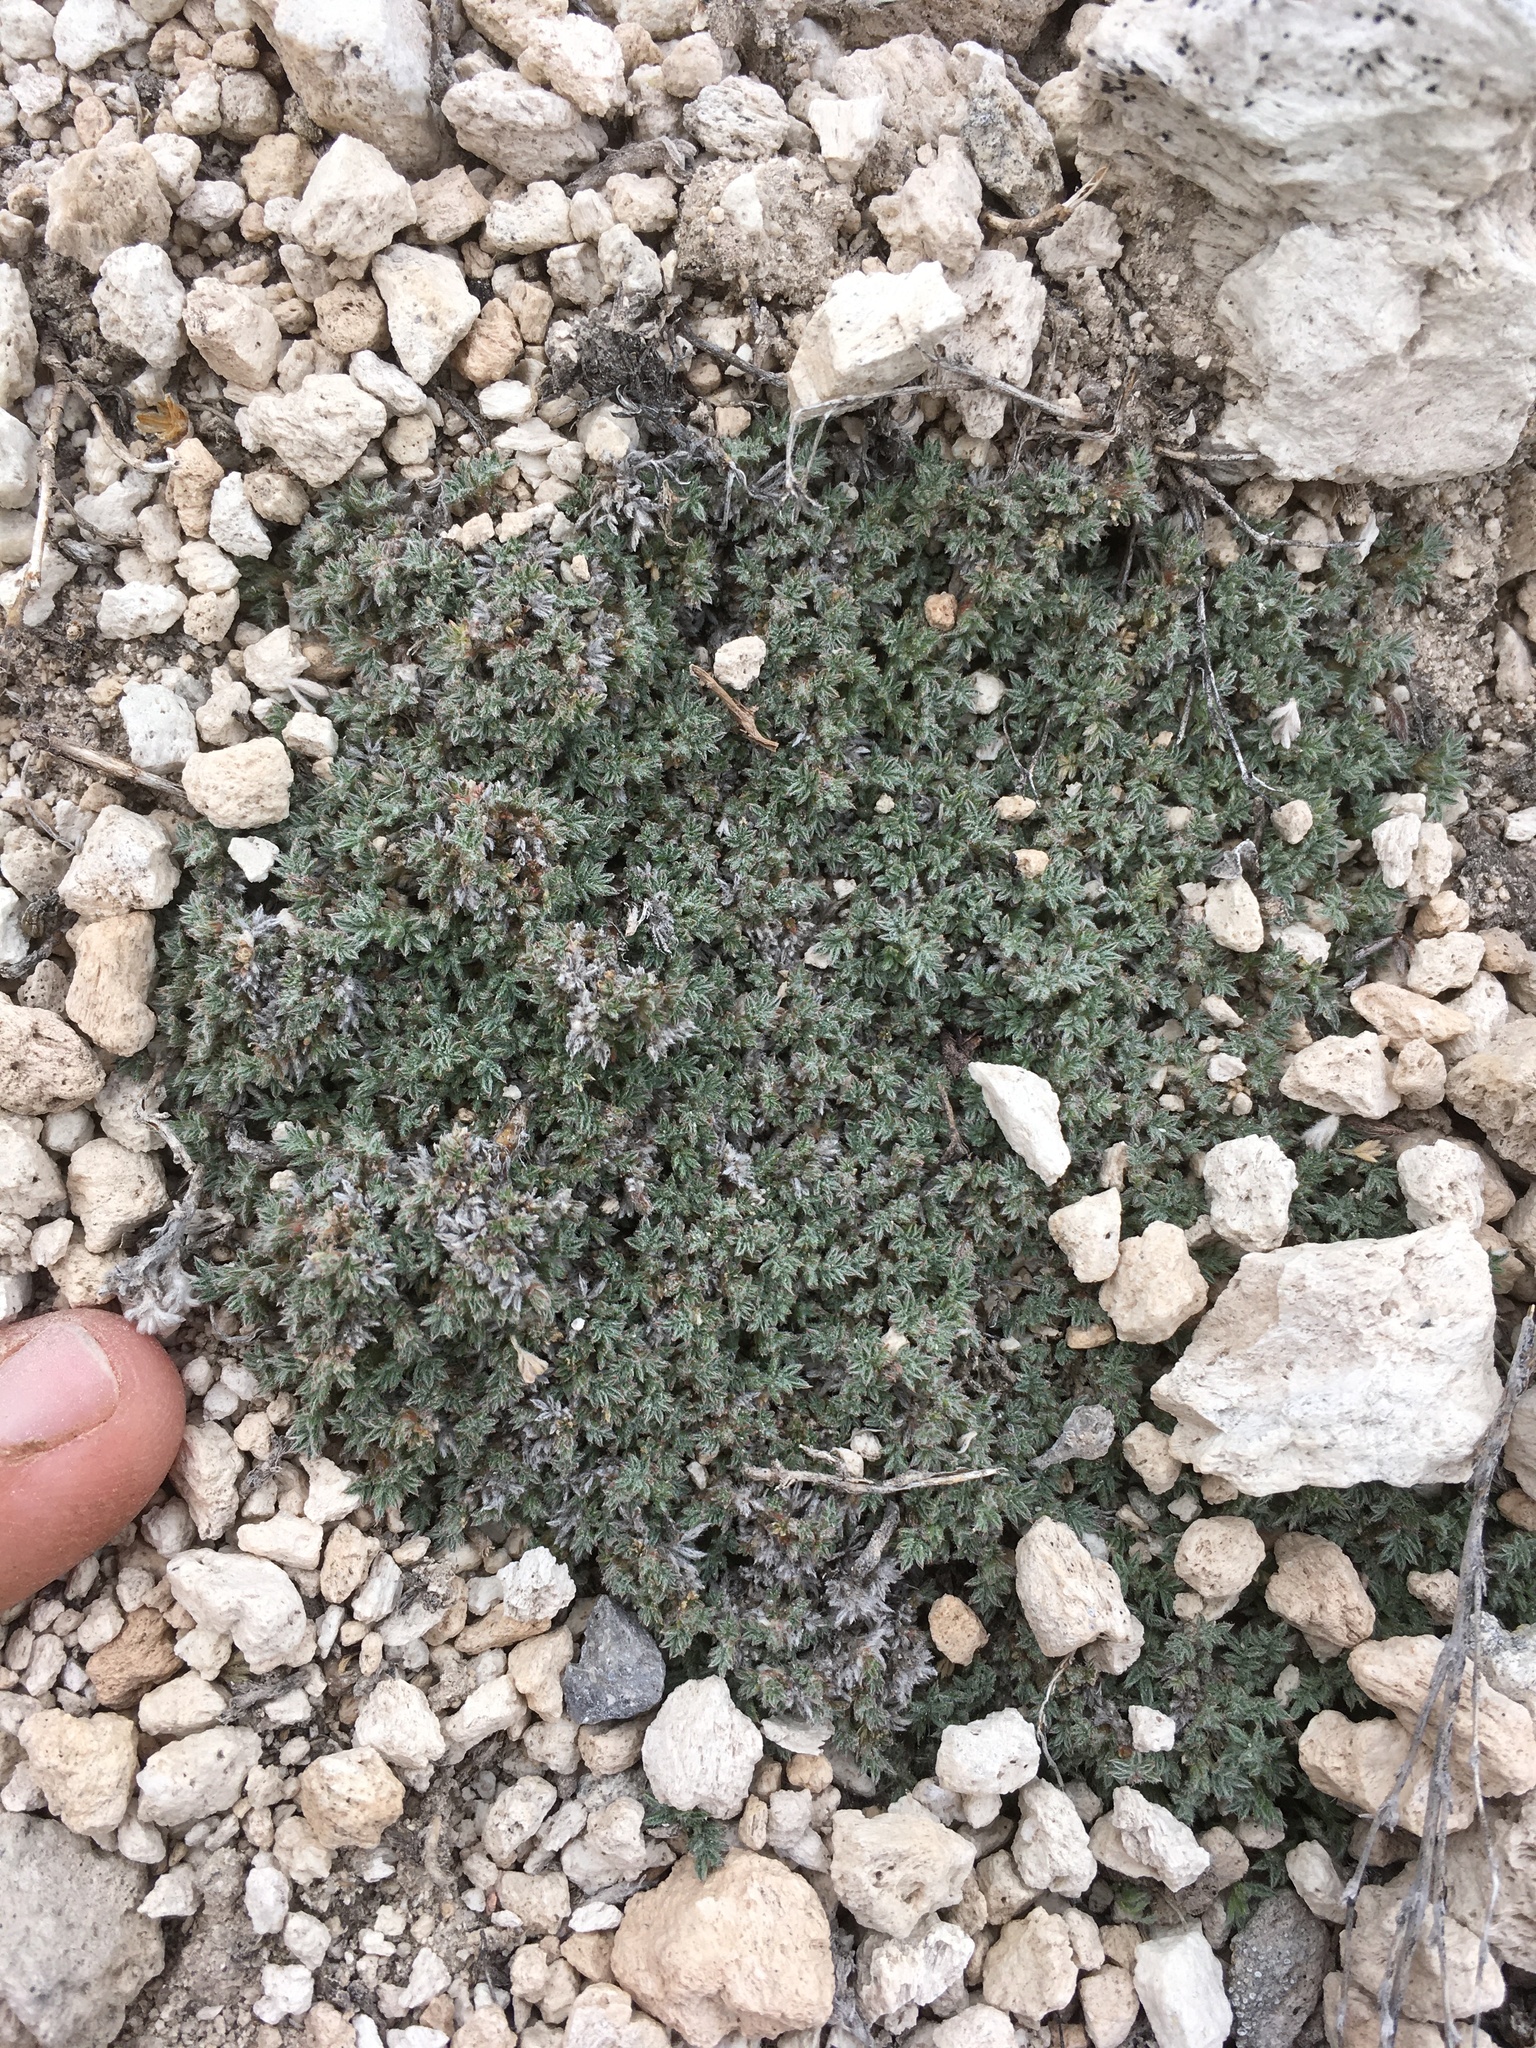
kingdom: Plantae
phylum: Tracheophyta
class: Magnoliopsida
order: Fabales
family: Fabaceae
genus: Astragalus
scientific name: Astragalus kentrophyta
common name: Prickly milk-vetch
